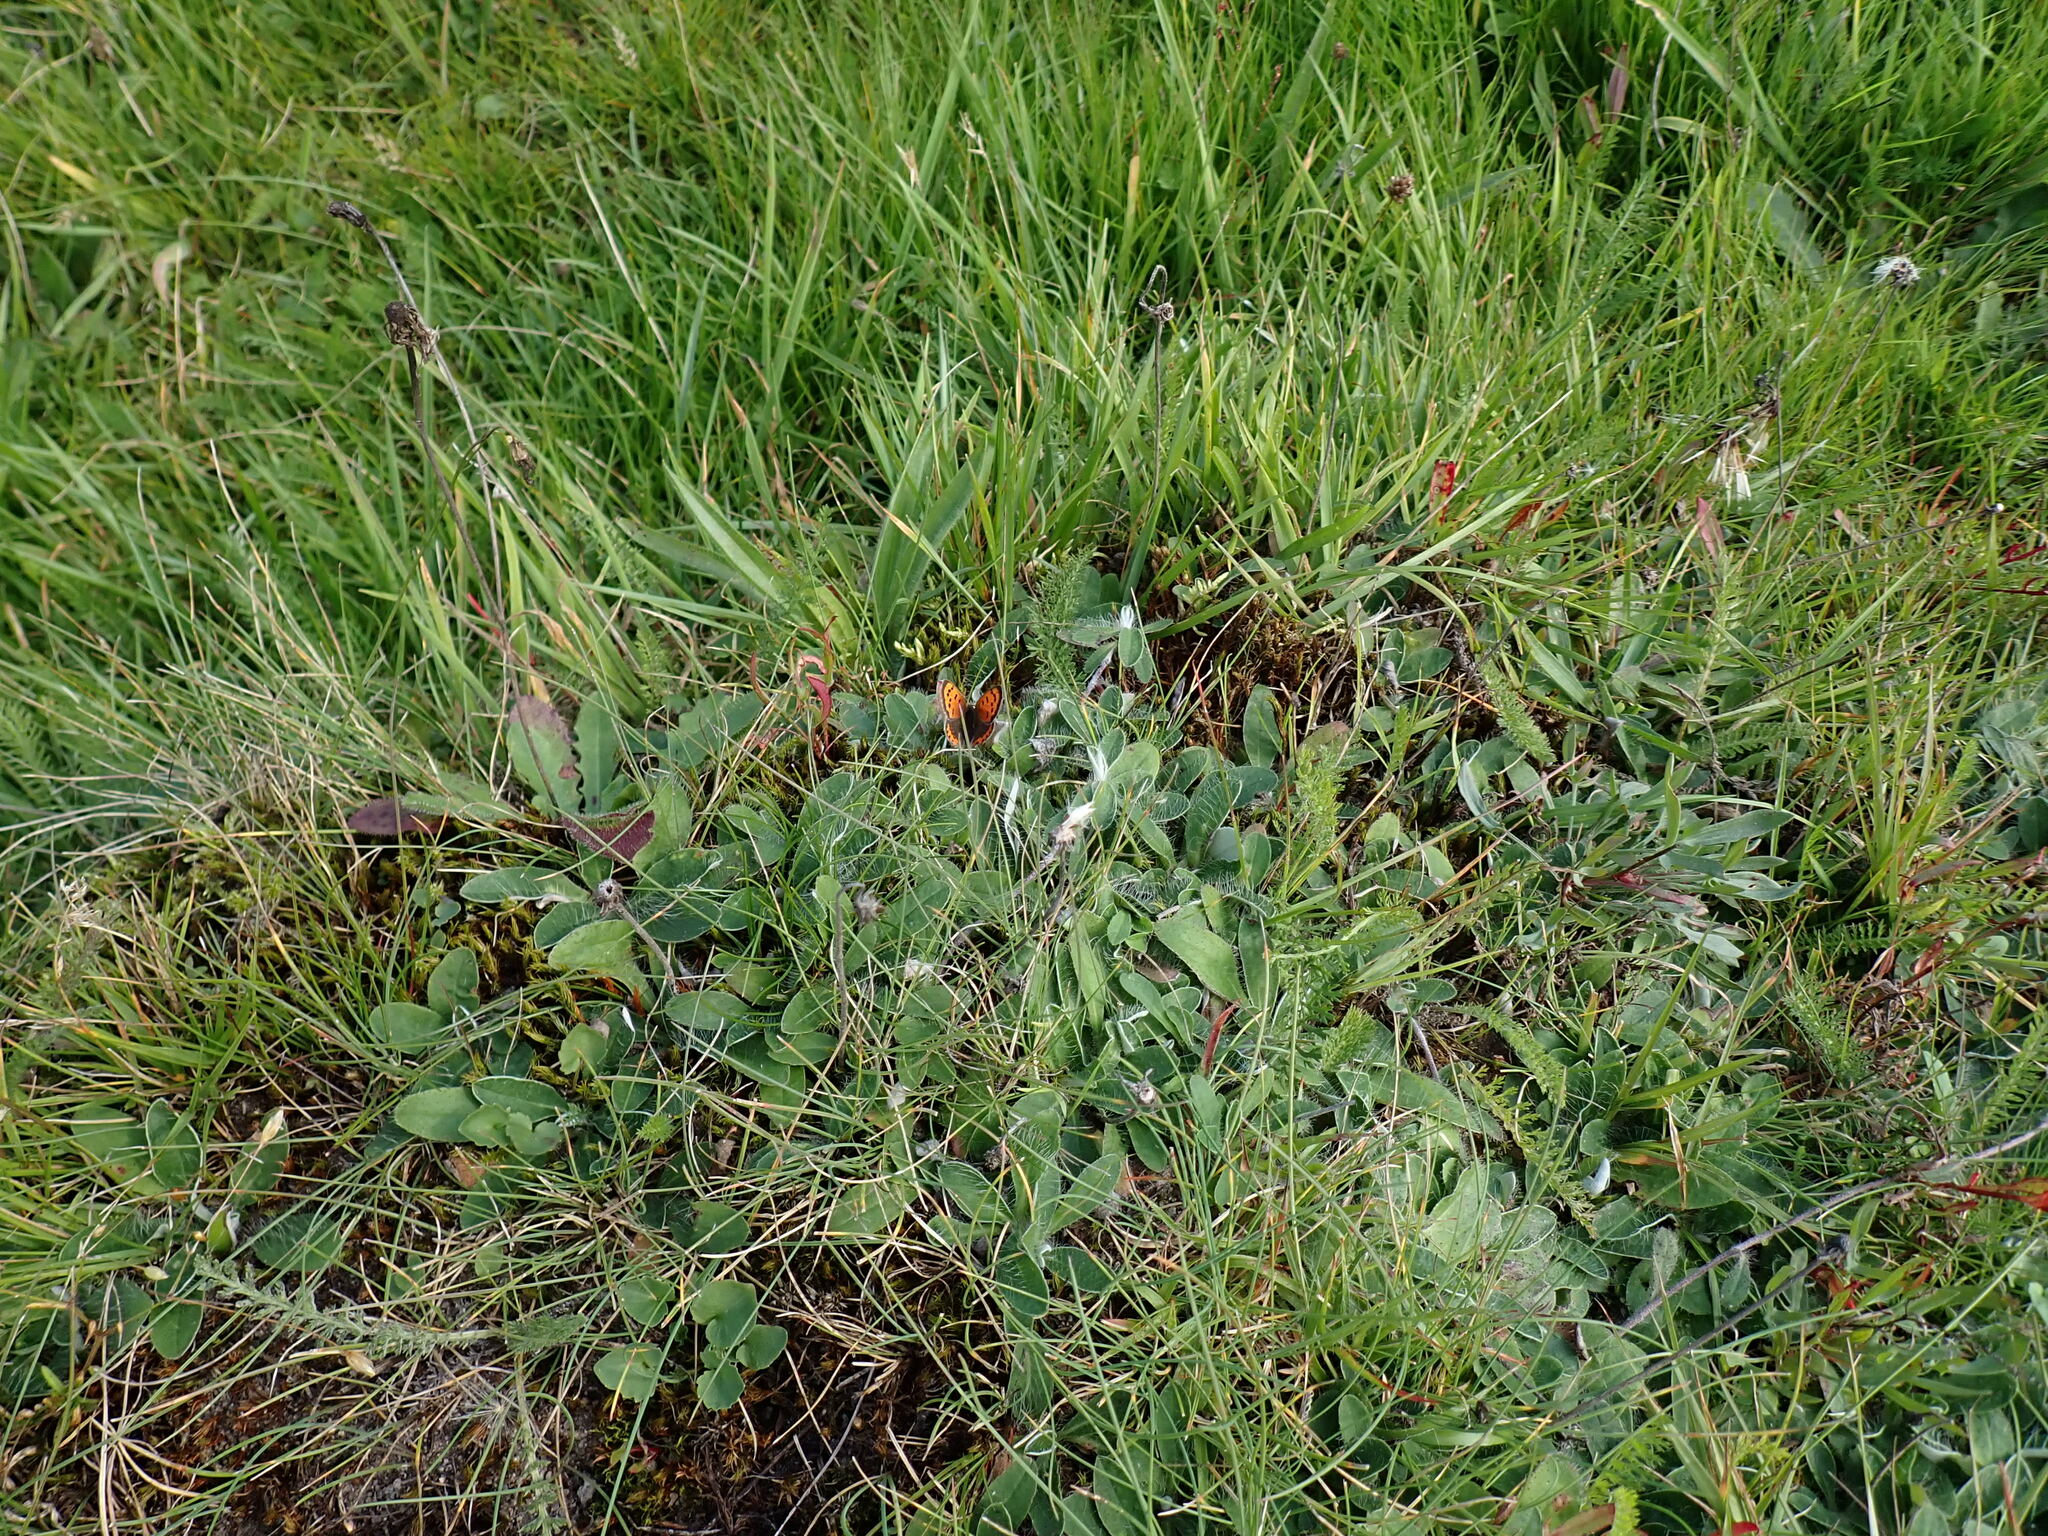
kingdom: Animalia
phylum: Arthropoda
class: Insecta
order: Lepidoptera
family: Lycaenidae
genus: Lycaena
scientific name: Lycaena phlaeas
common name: Small copper
